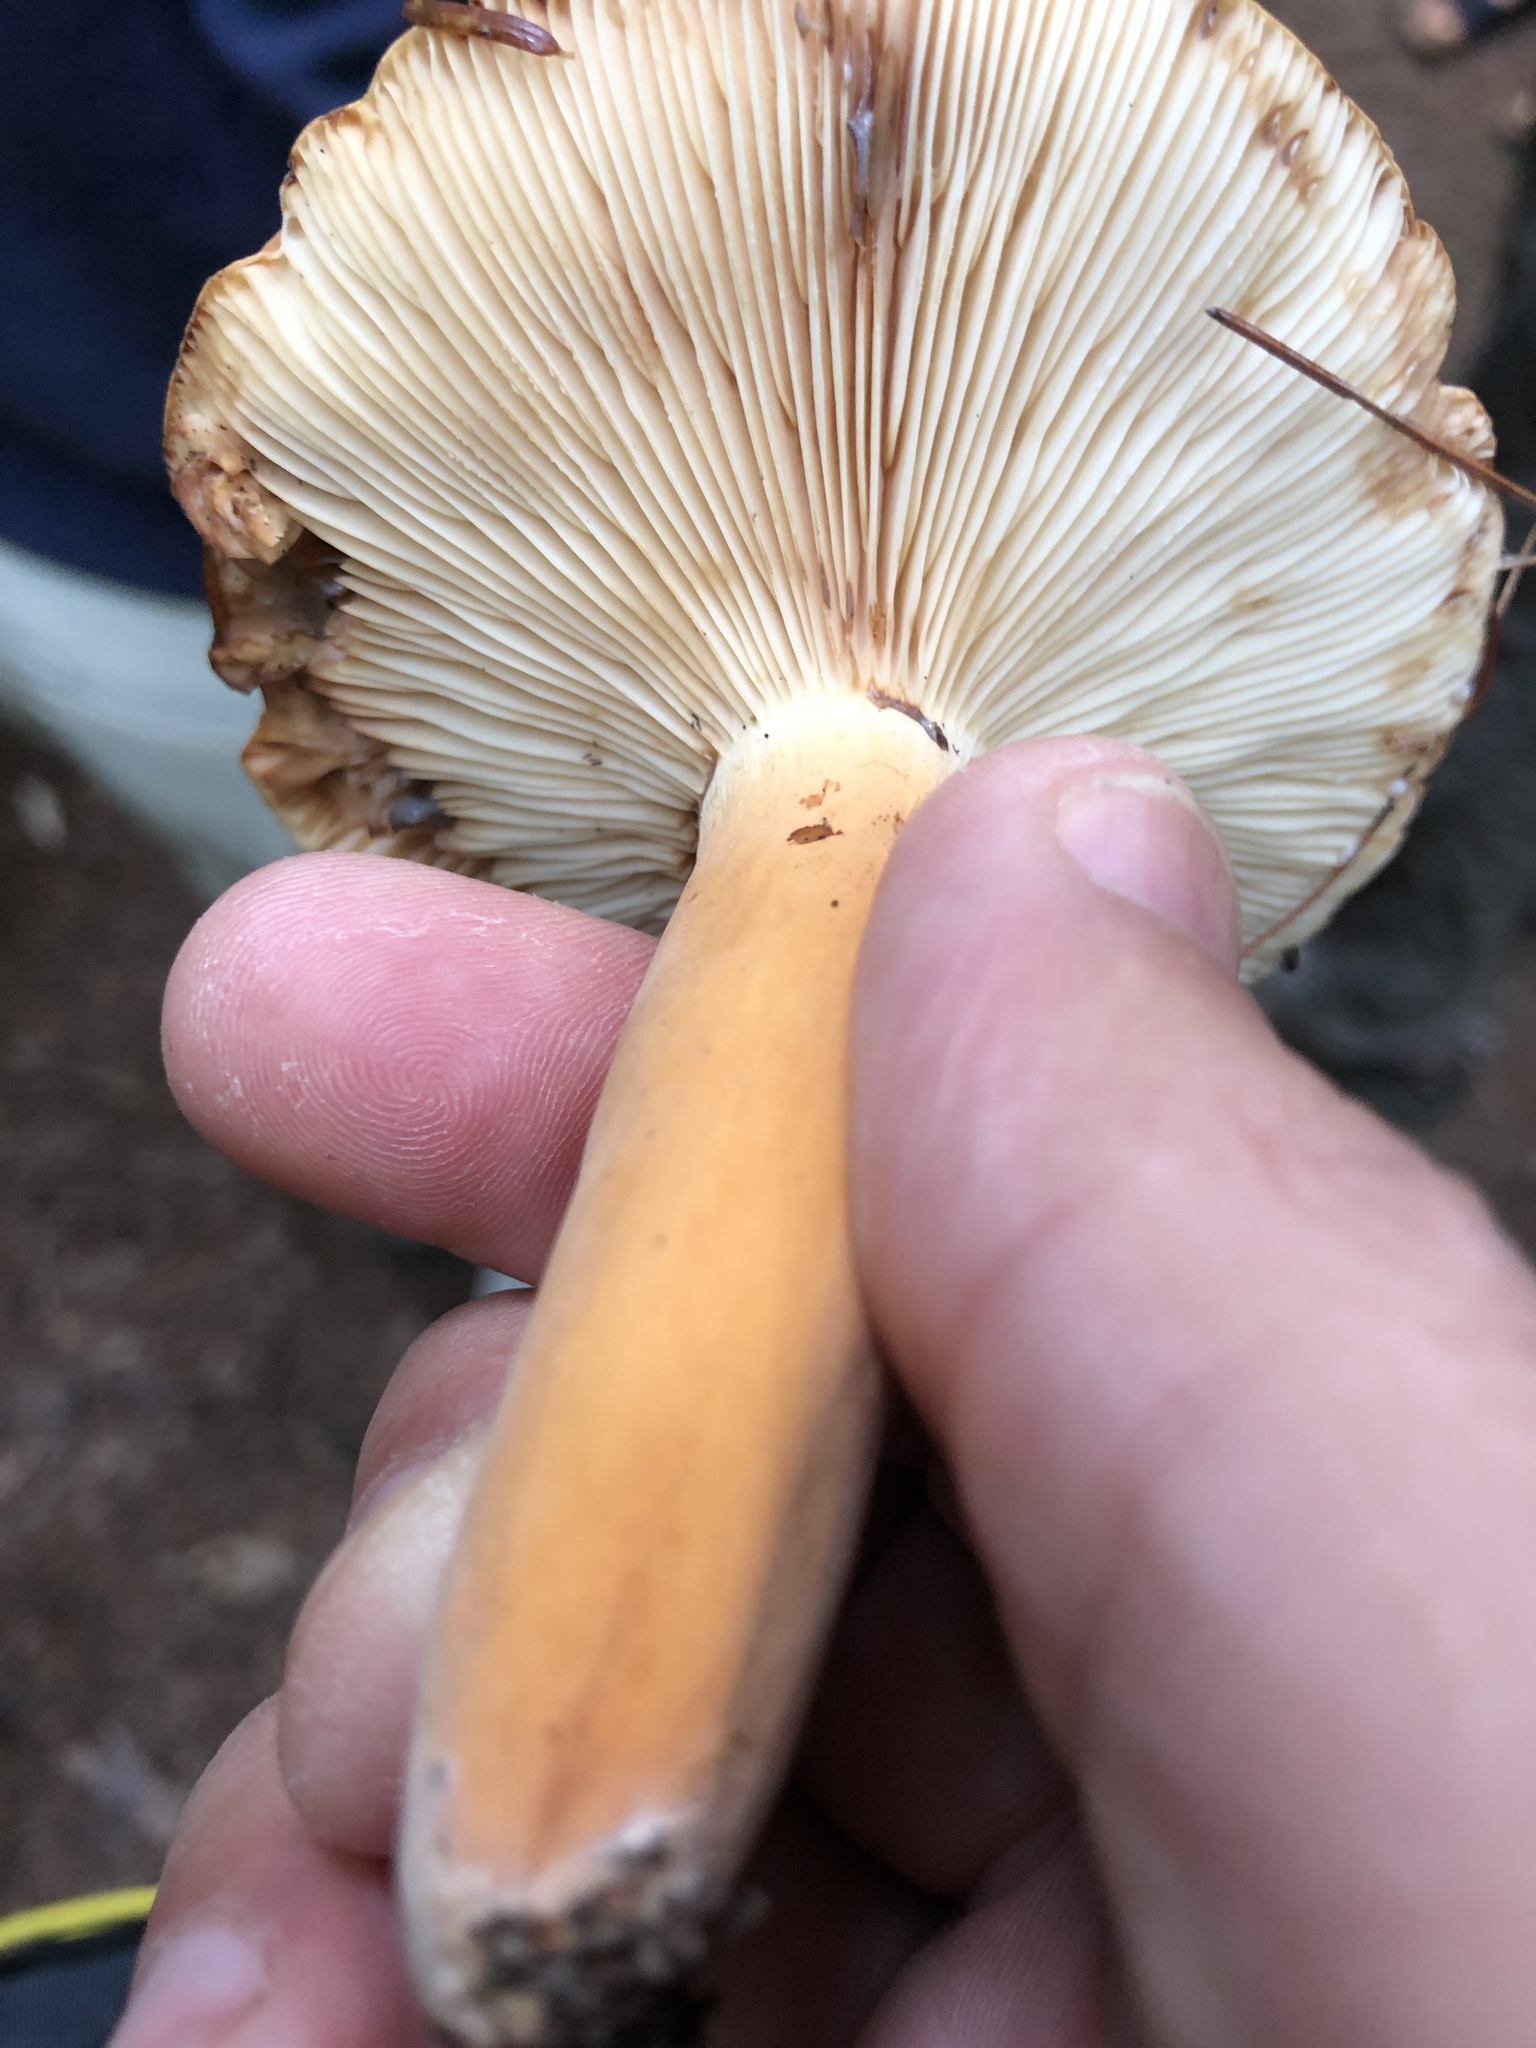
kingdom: Fungi
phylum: Basidiomycota
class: Agaricomycetes
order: Russulales
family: Russulaceae
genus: Lactifluus
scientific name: Lactifluus volemus
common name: Fishy milkcap
